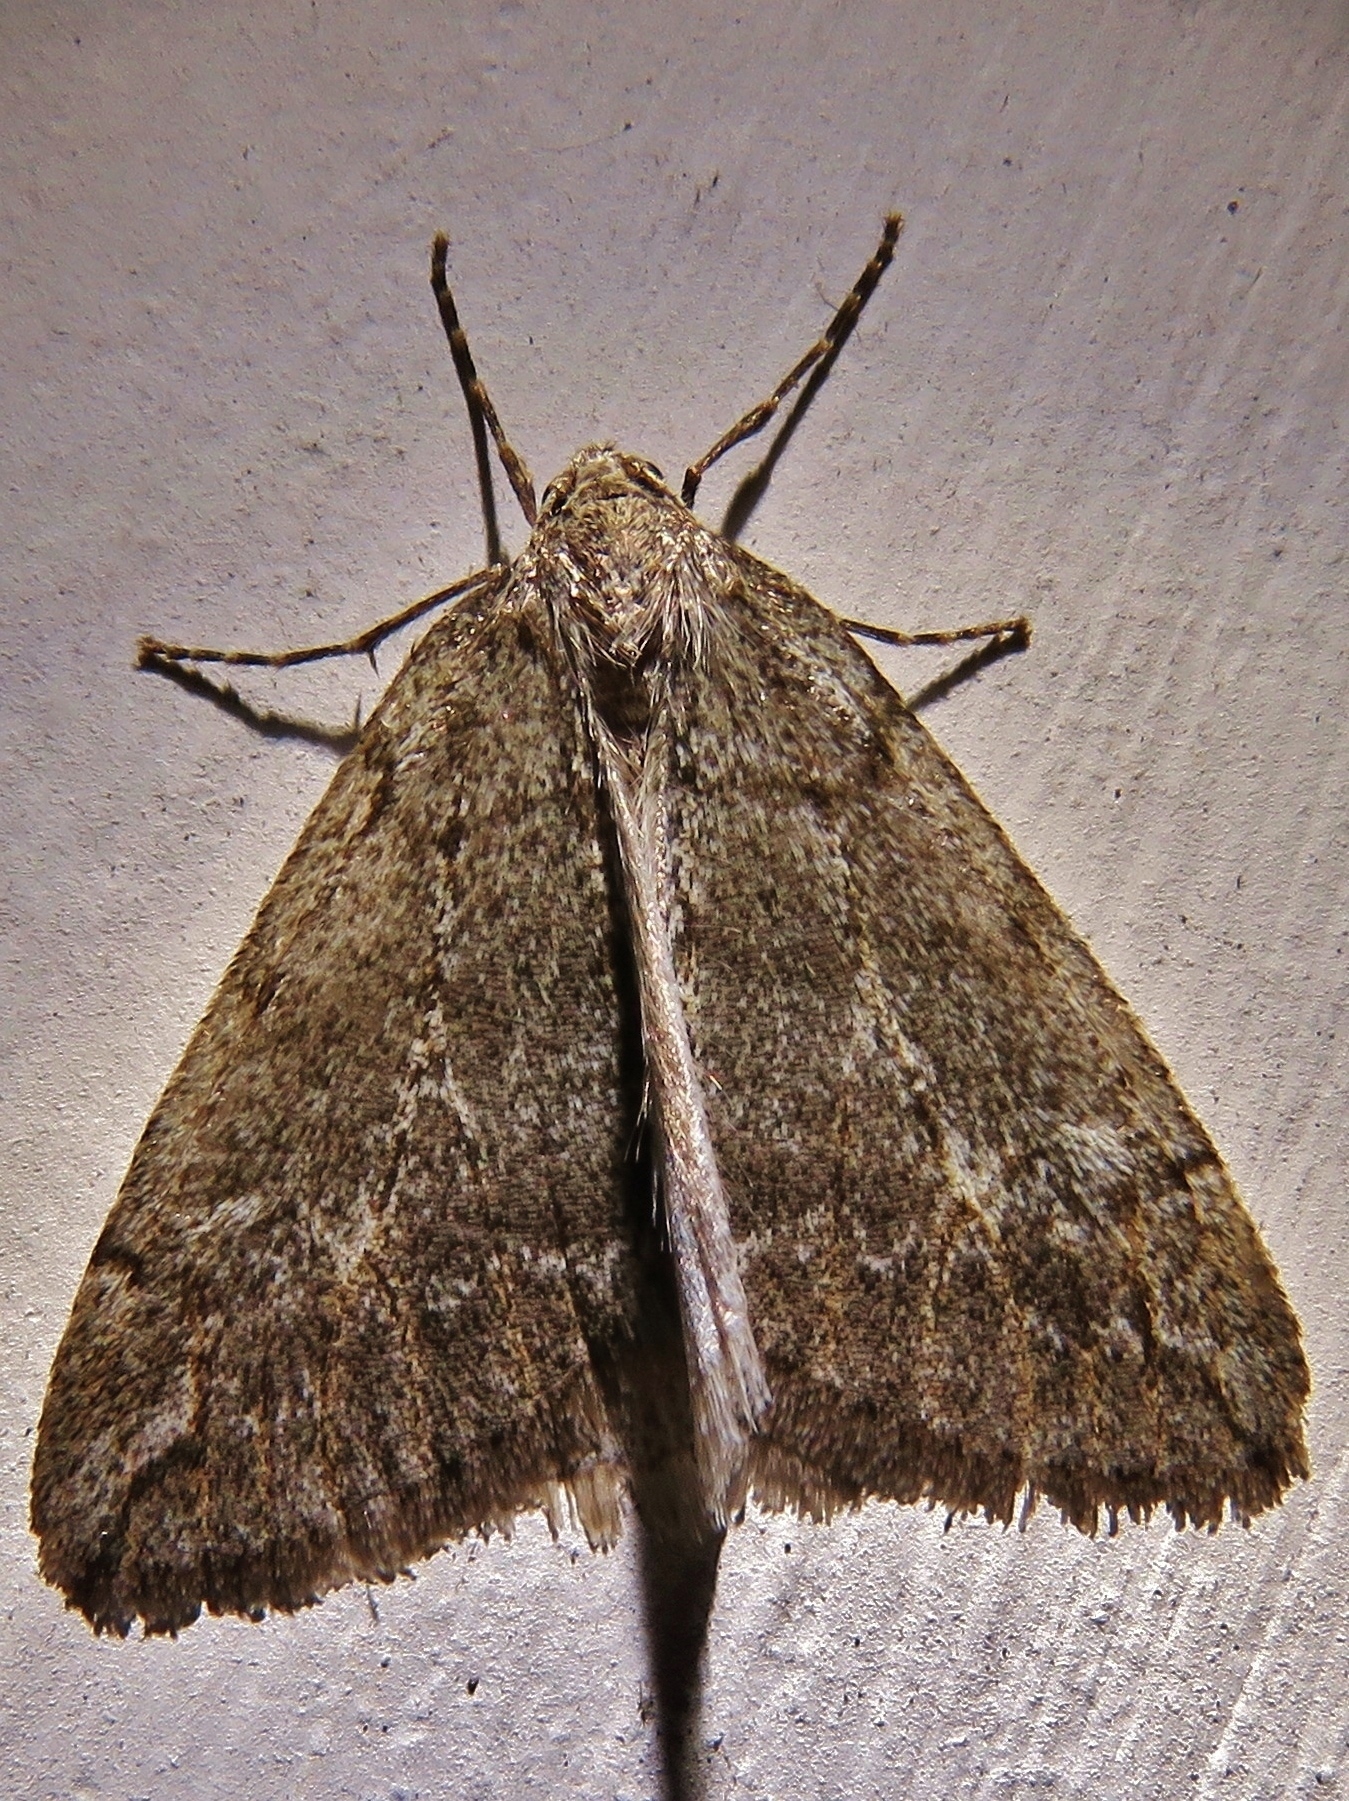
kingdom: Animalia
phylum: Arthropoda
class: Insecta
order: Lepidoptera
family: Geometridae
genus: Paleacrita
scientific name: Paleacrita vernata
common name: Spring cankerworm
